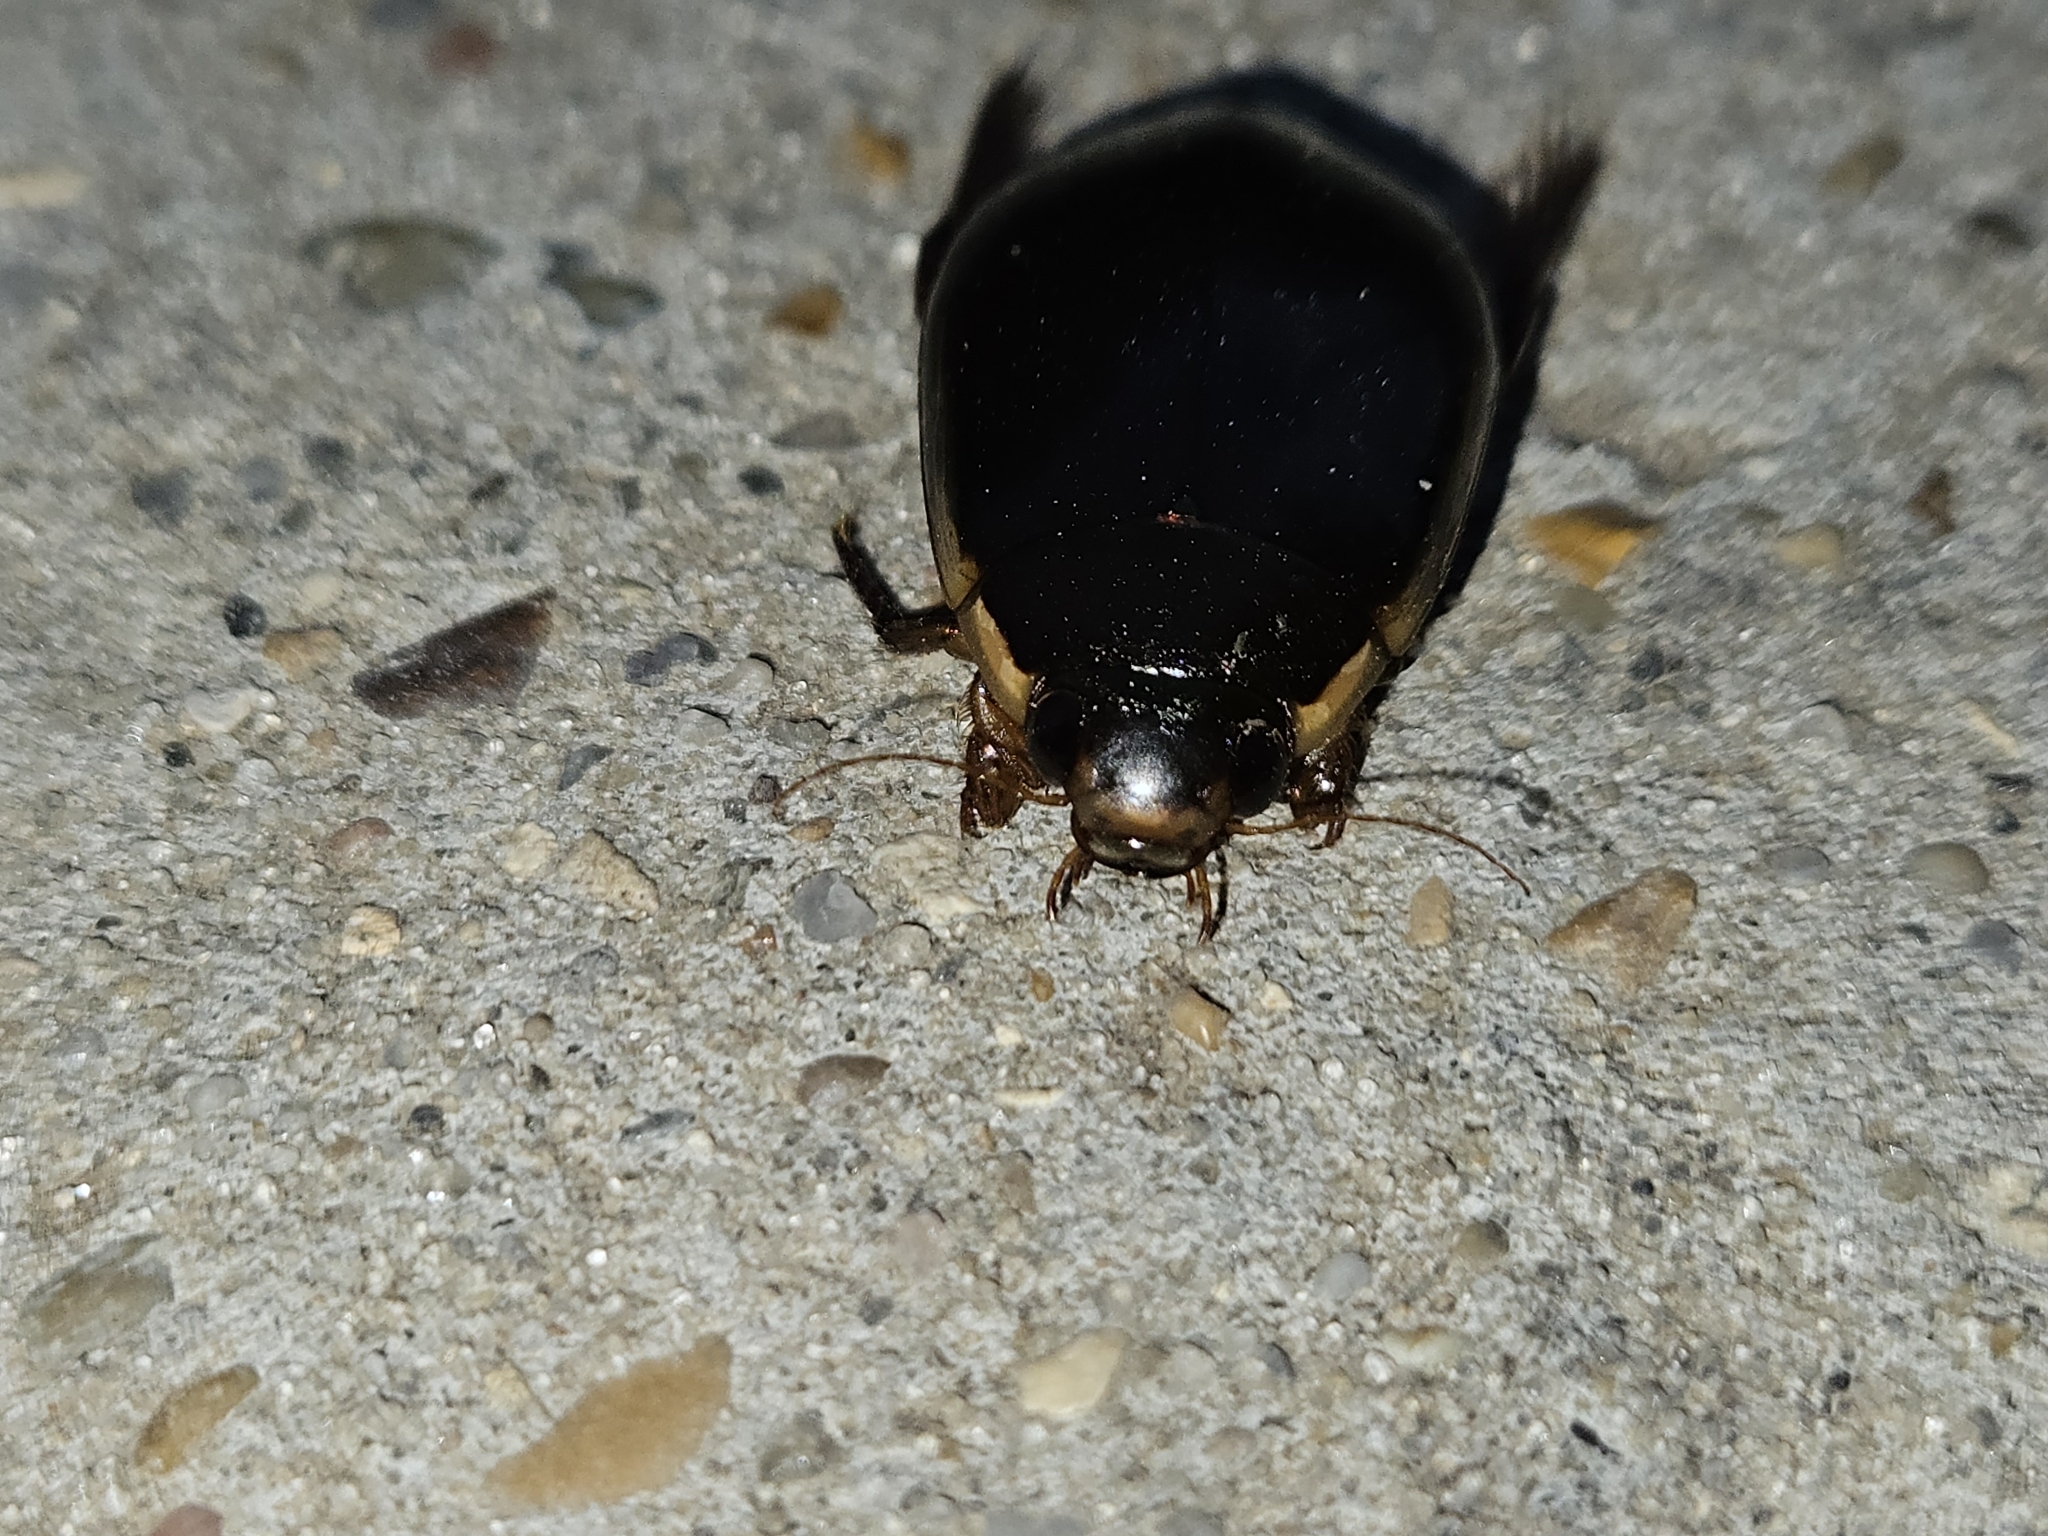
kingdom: Animalia
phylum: Arthropoda
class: Insecta
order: Coleoptera
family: Dytiscidae
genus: Cybister
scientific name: Cybister fimbriolatus
